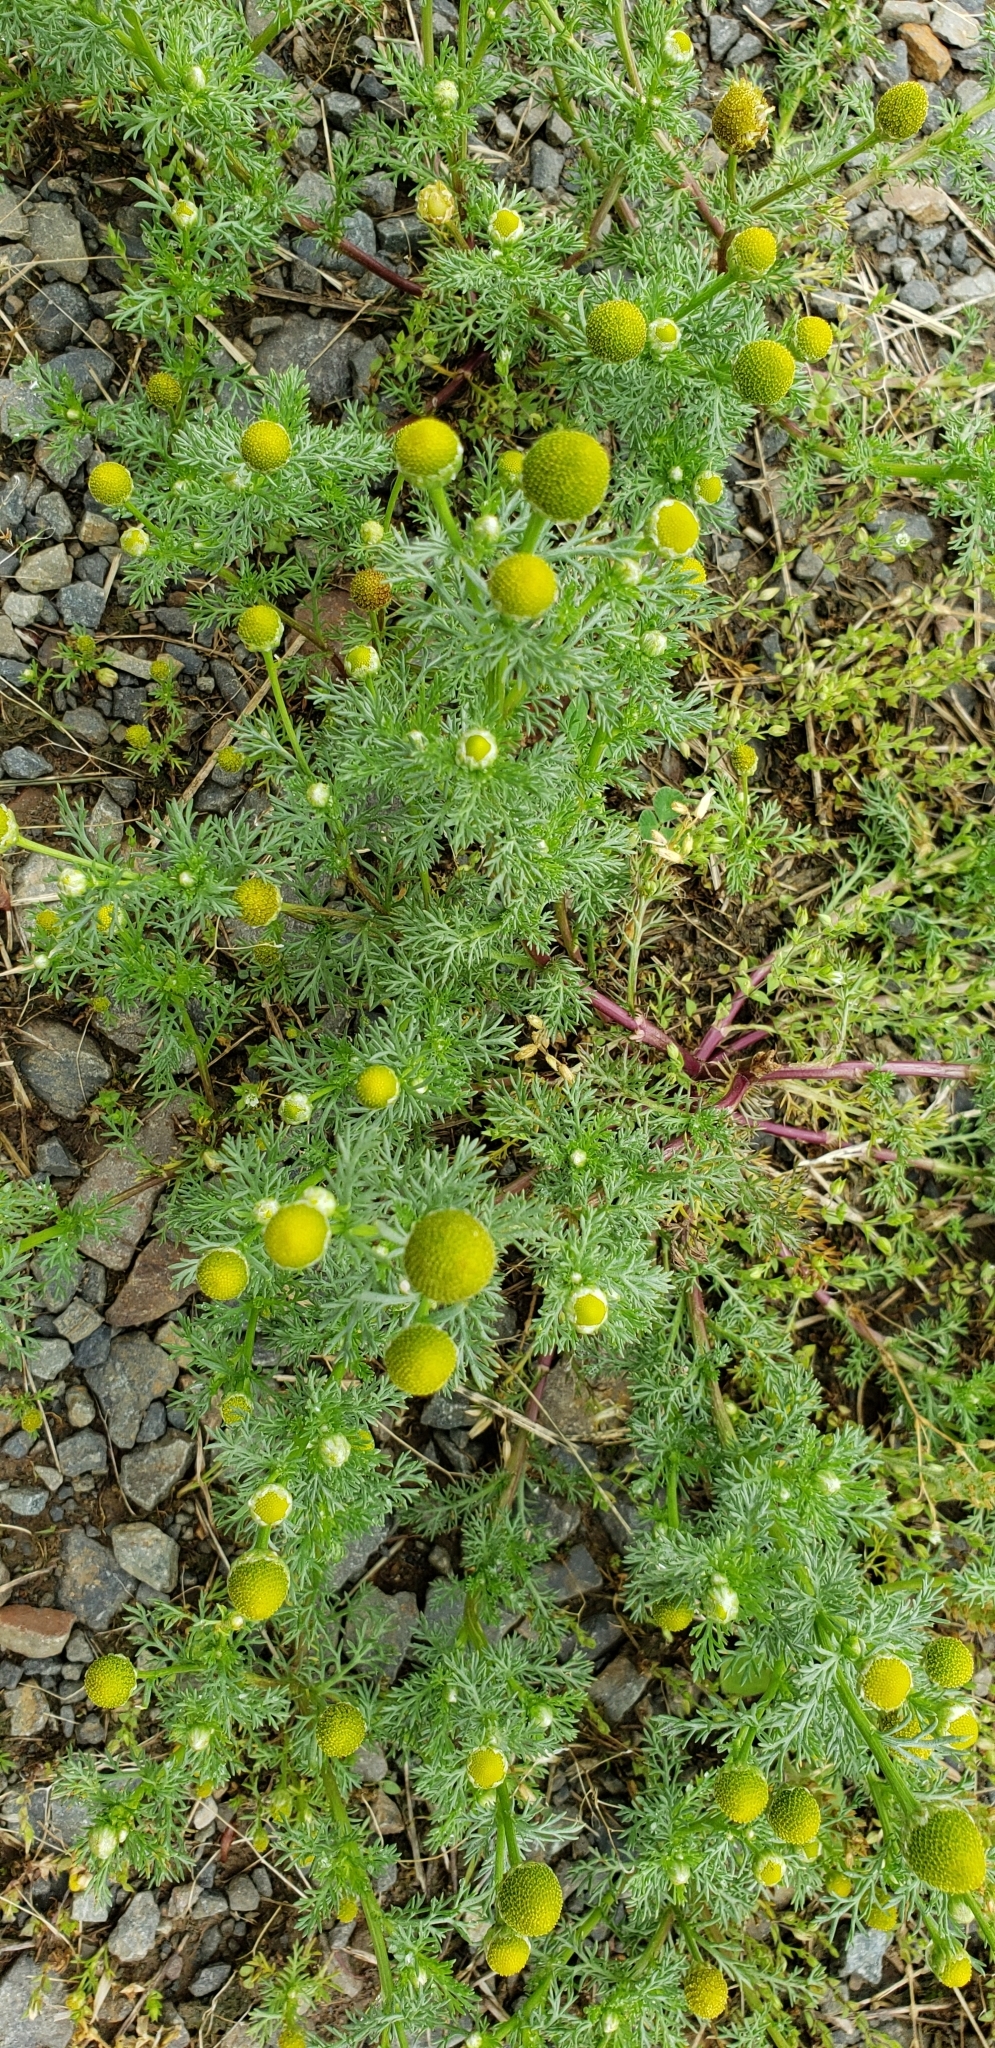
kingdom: Plantae
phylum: Tracheophyta
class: Magnoliopsida
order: Asterales
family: Asteraceae
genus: Matricaria
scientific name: Matricaria discoidea
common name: Disc mayweed
